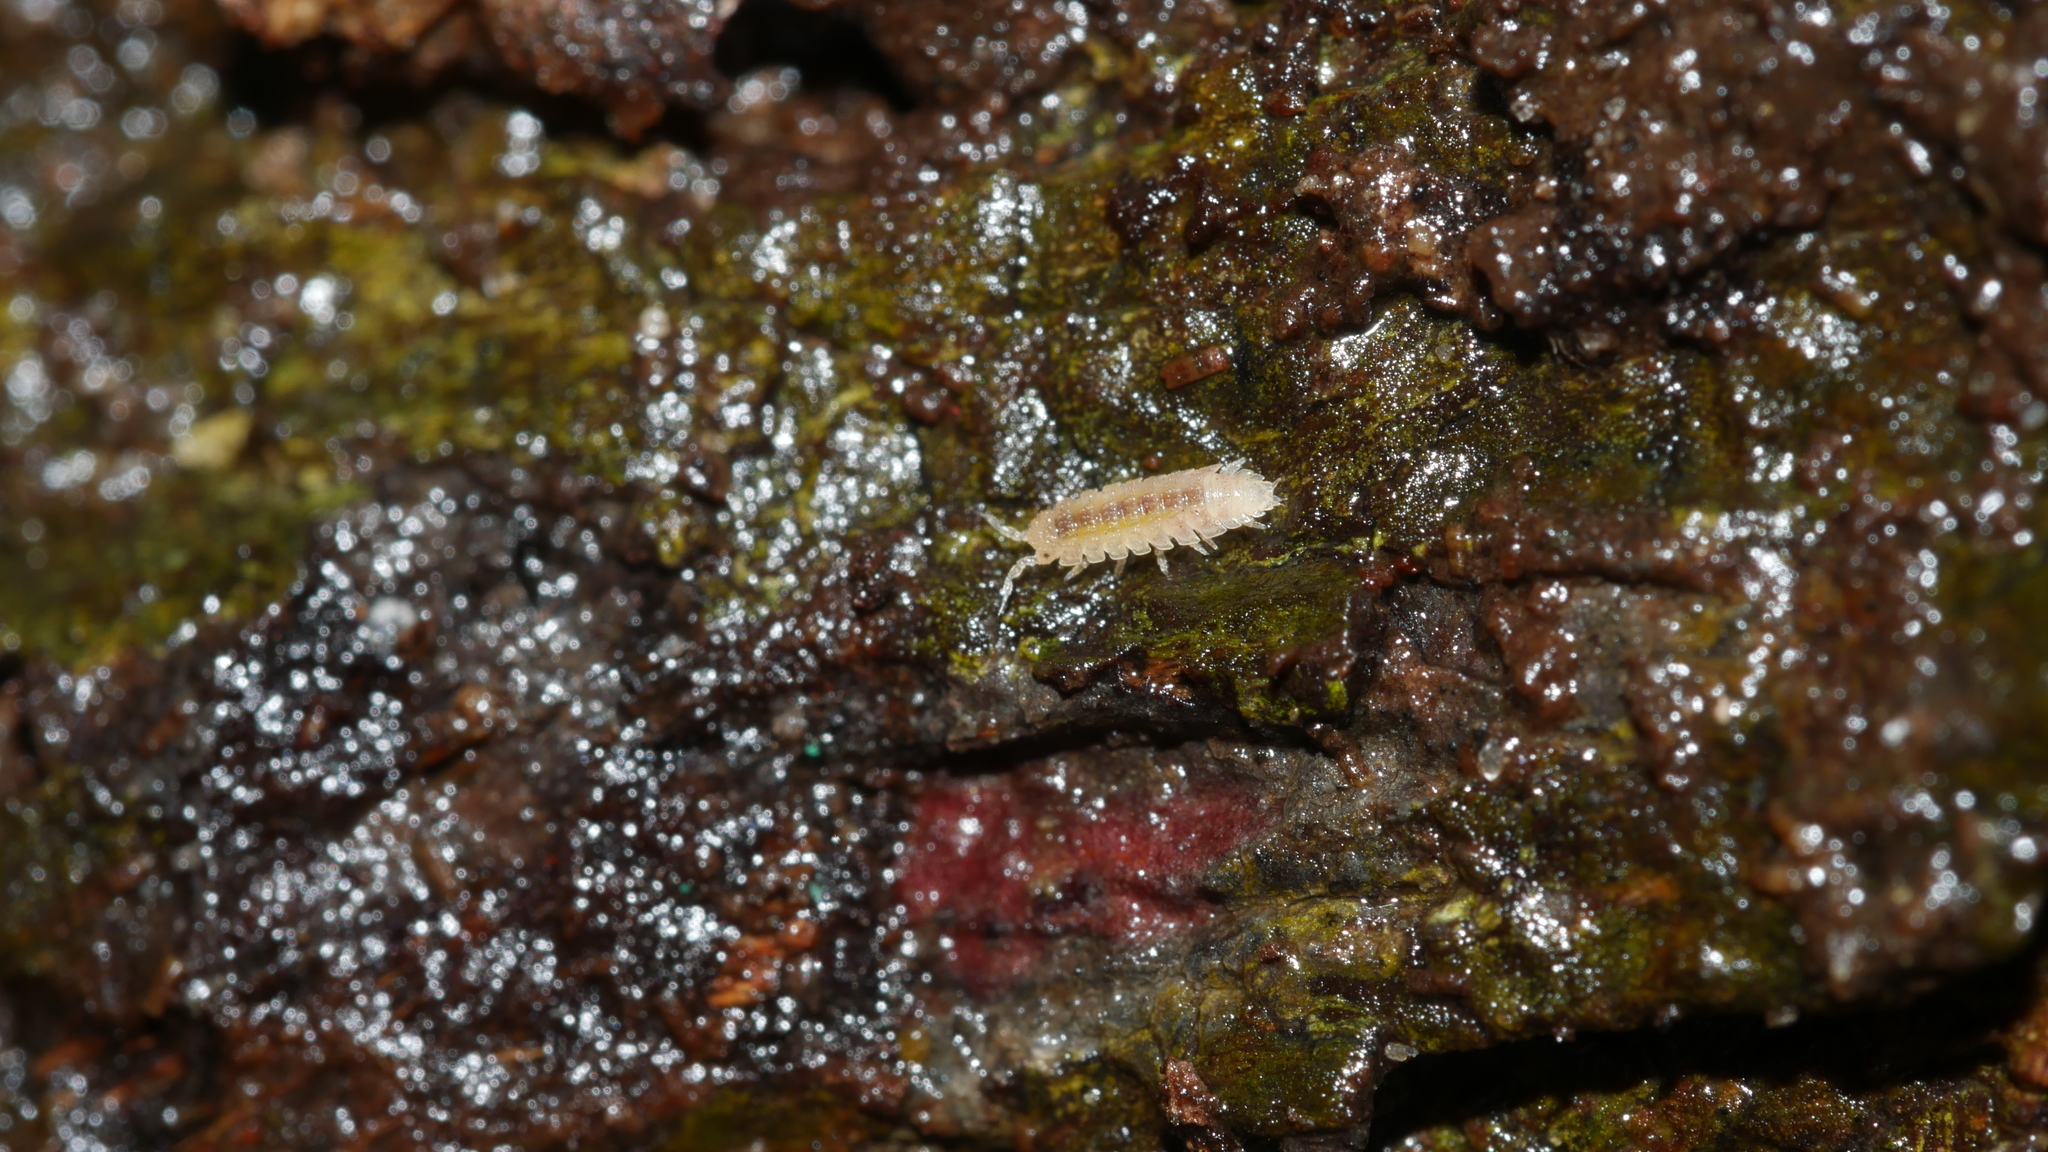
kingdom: Animalia
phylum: Arthropoda
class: Malacostraca
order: Isopoda
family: Trichoniscidae
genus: Haplophthalmus
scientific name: Haplophthalmus danicus
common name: Pillbug
